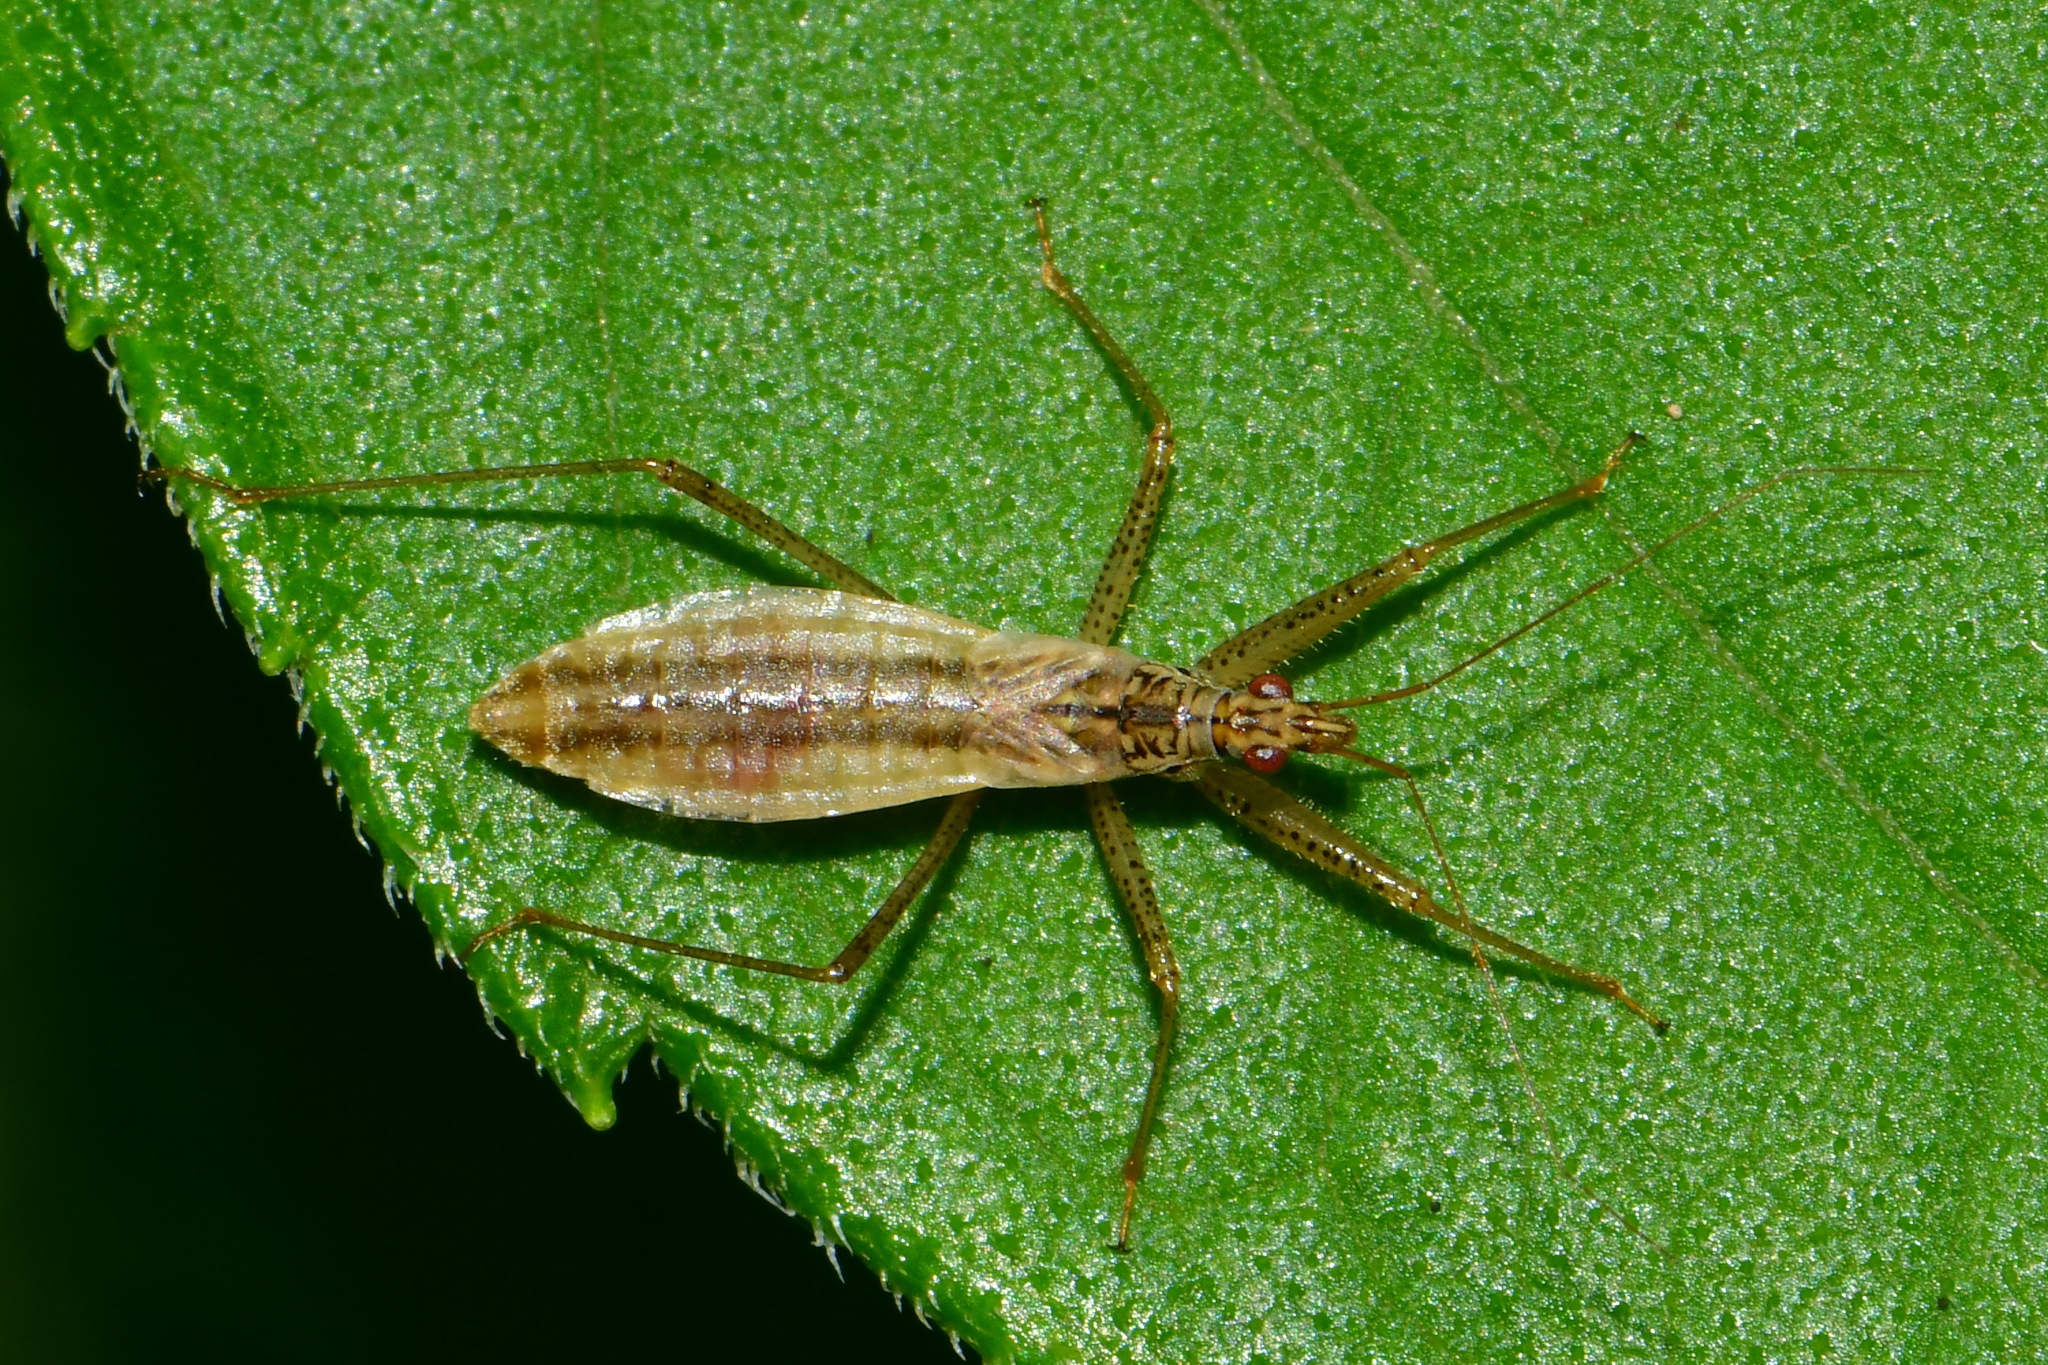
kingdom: Animalia
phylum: Arthropoda
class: Insecta
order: Hemiptera
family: Nabidae
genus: Nabis
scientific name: Nabis limbatus
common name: Marsh damselbug
